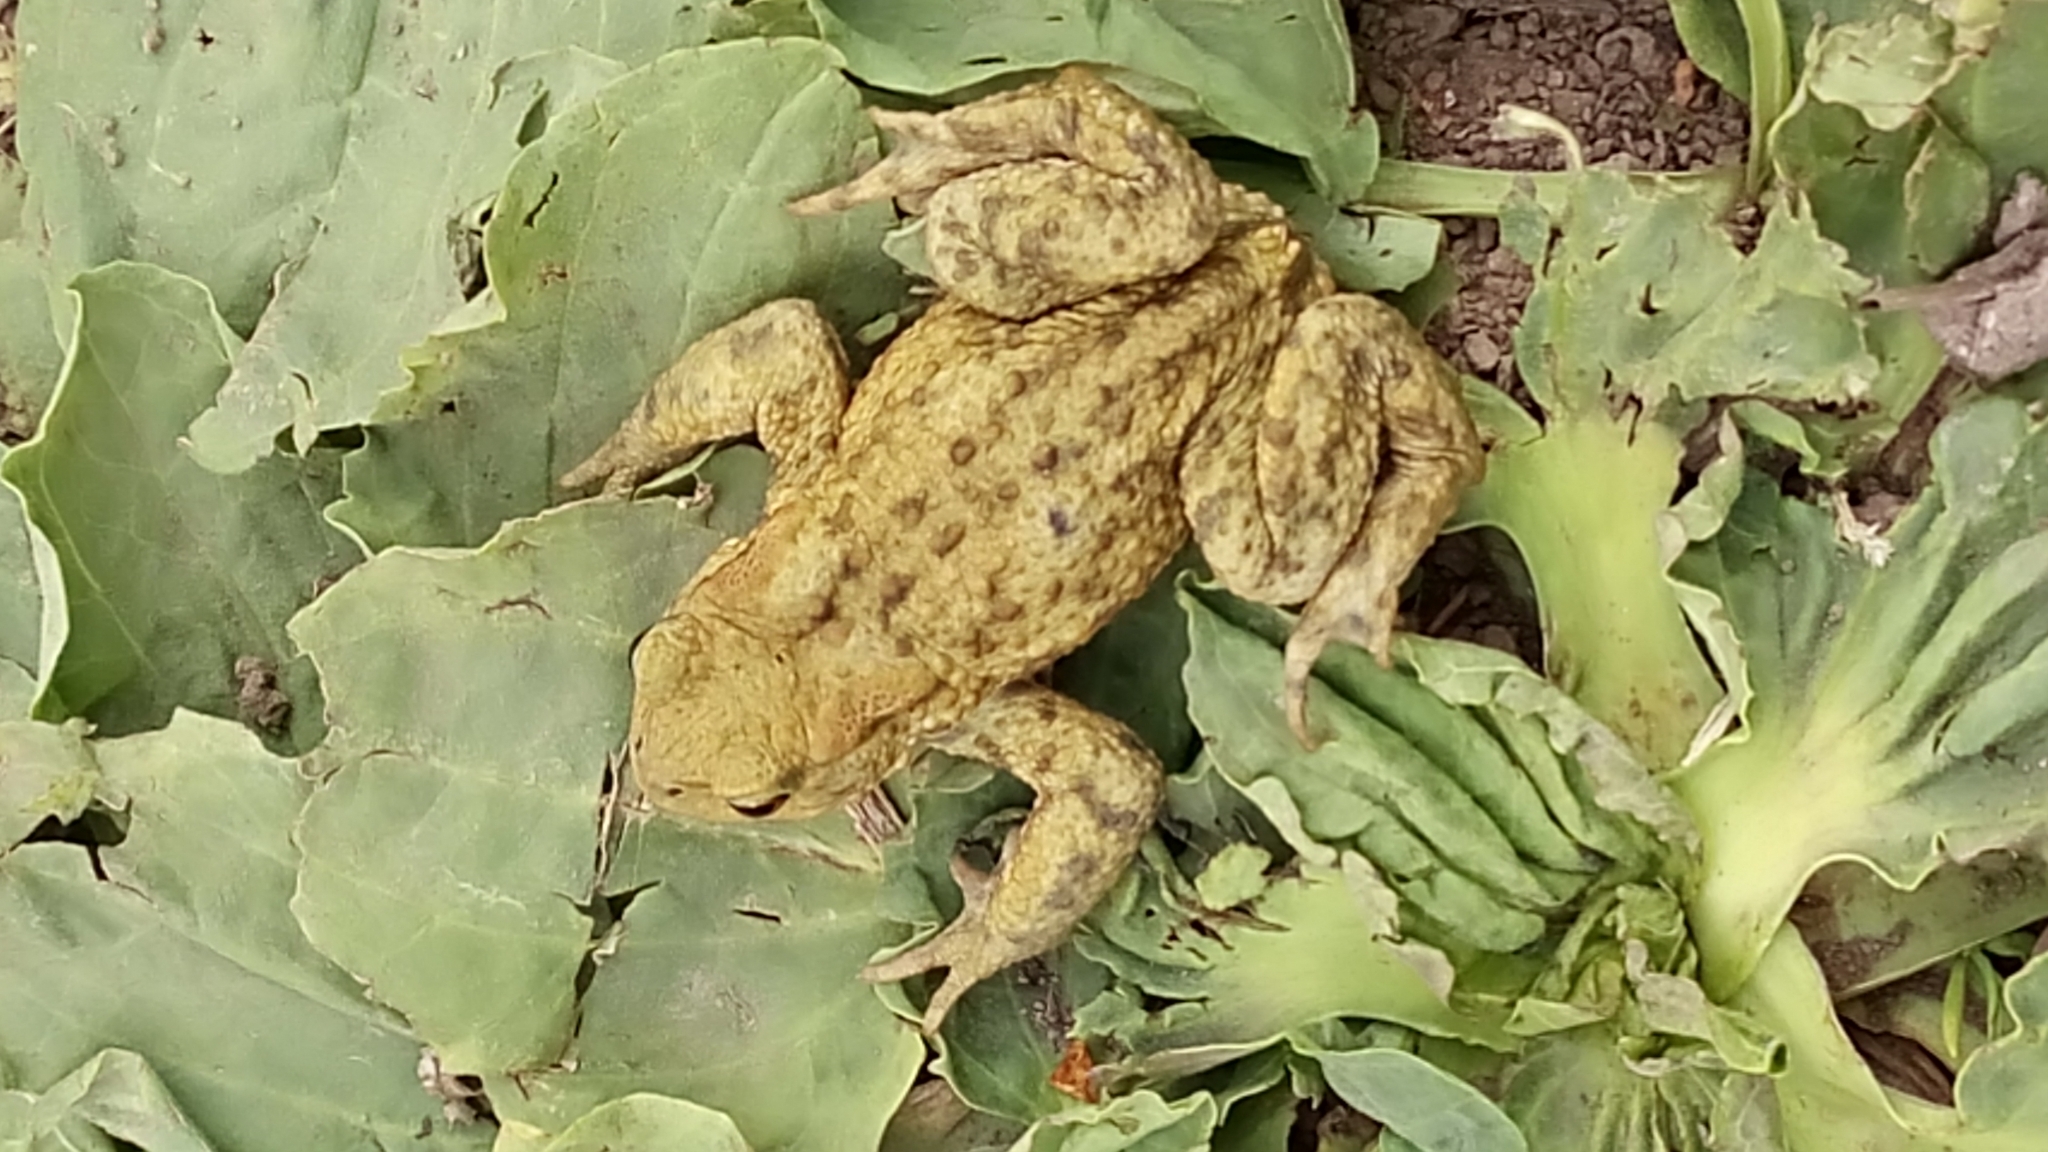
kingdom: Animalia
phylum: Chordata
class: Amphibia
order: Anura
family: Bufonidae
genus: Bufo
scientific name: Bufo bufo
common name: Common toad
